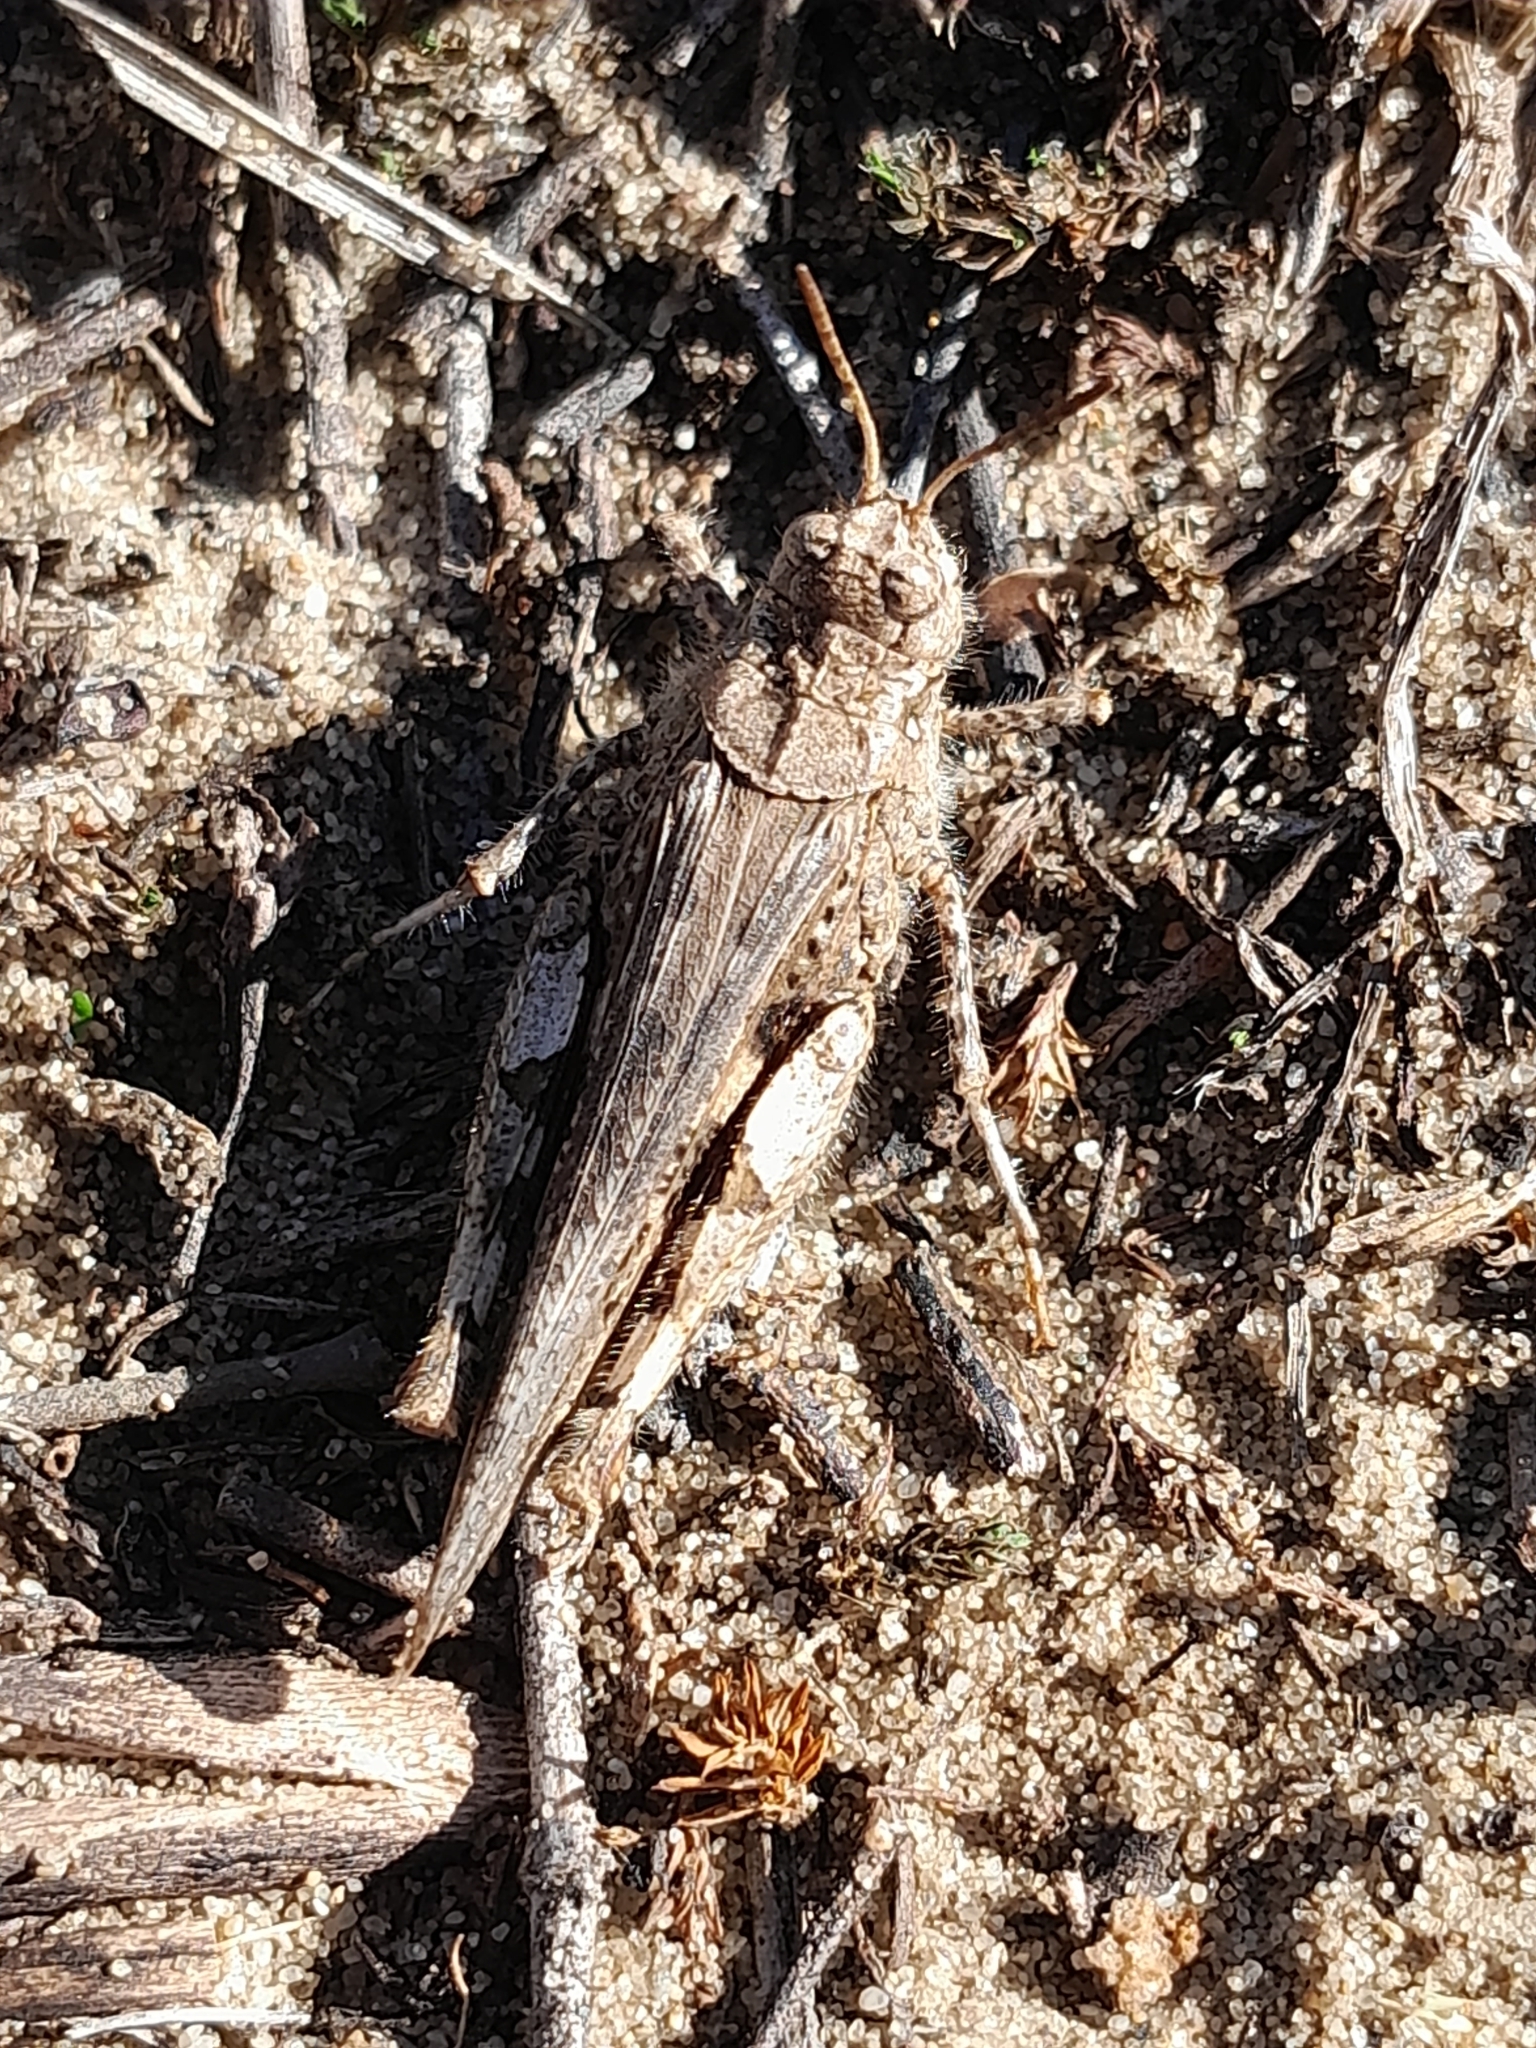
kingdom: Animalia
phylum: Arthropoda
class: Insecta
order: Orthoptera
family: Acrididae
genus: Acrotylus
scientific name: Acrotylus insubricus
